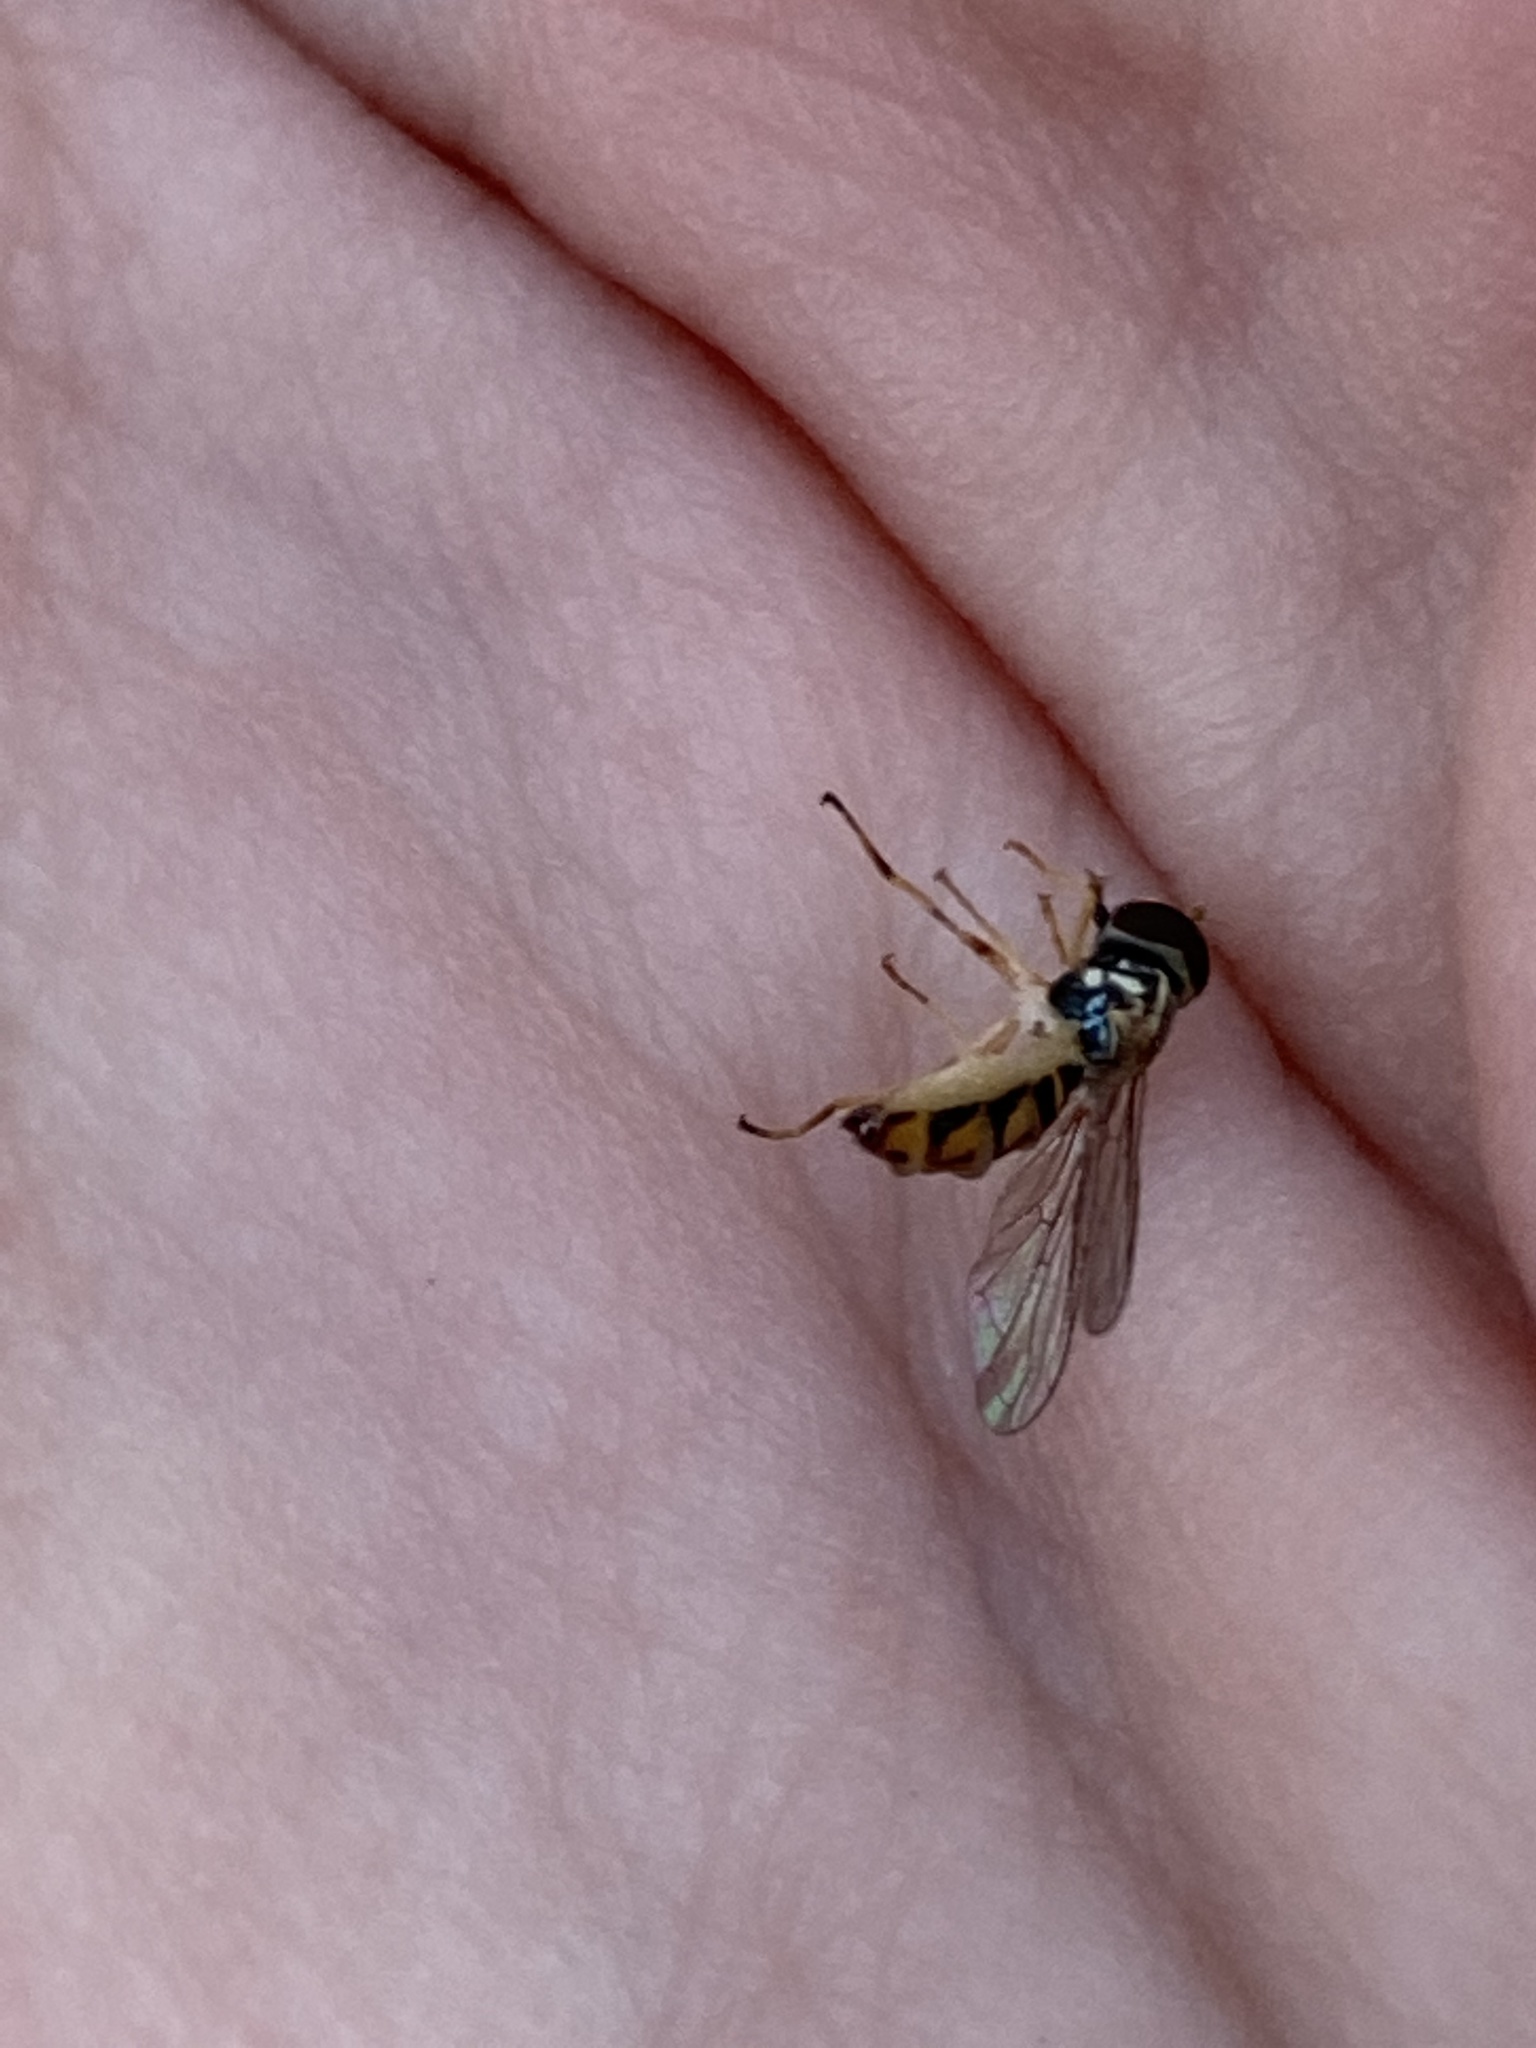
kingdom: Animalia
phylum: Arthropoda
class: Insecta
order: Diptera
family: Syrphidae
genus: Toxomerus
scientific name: Toxomerus floralis
